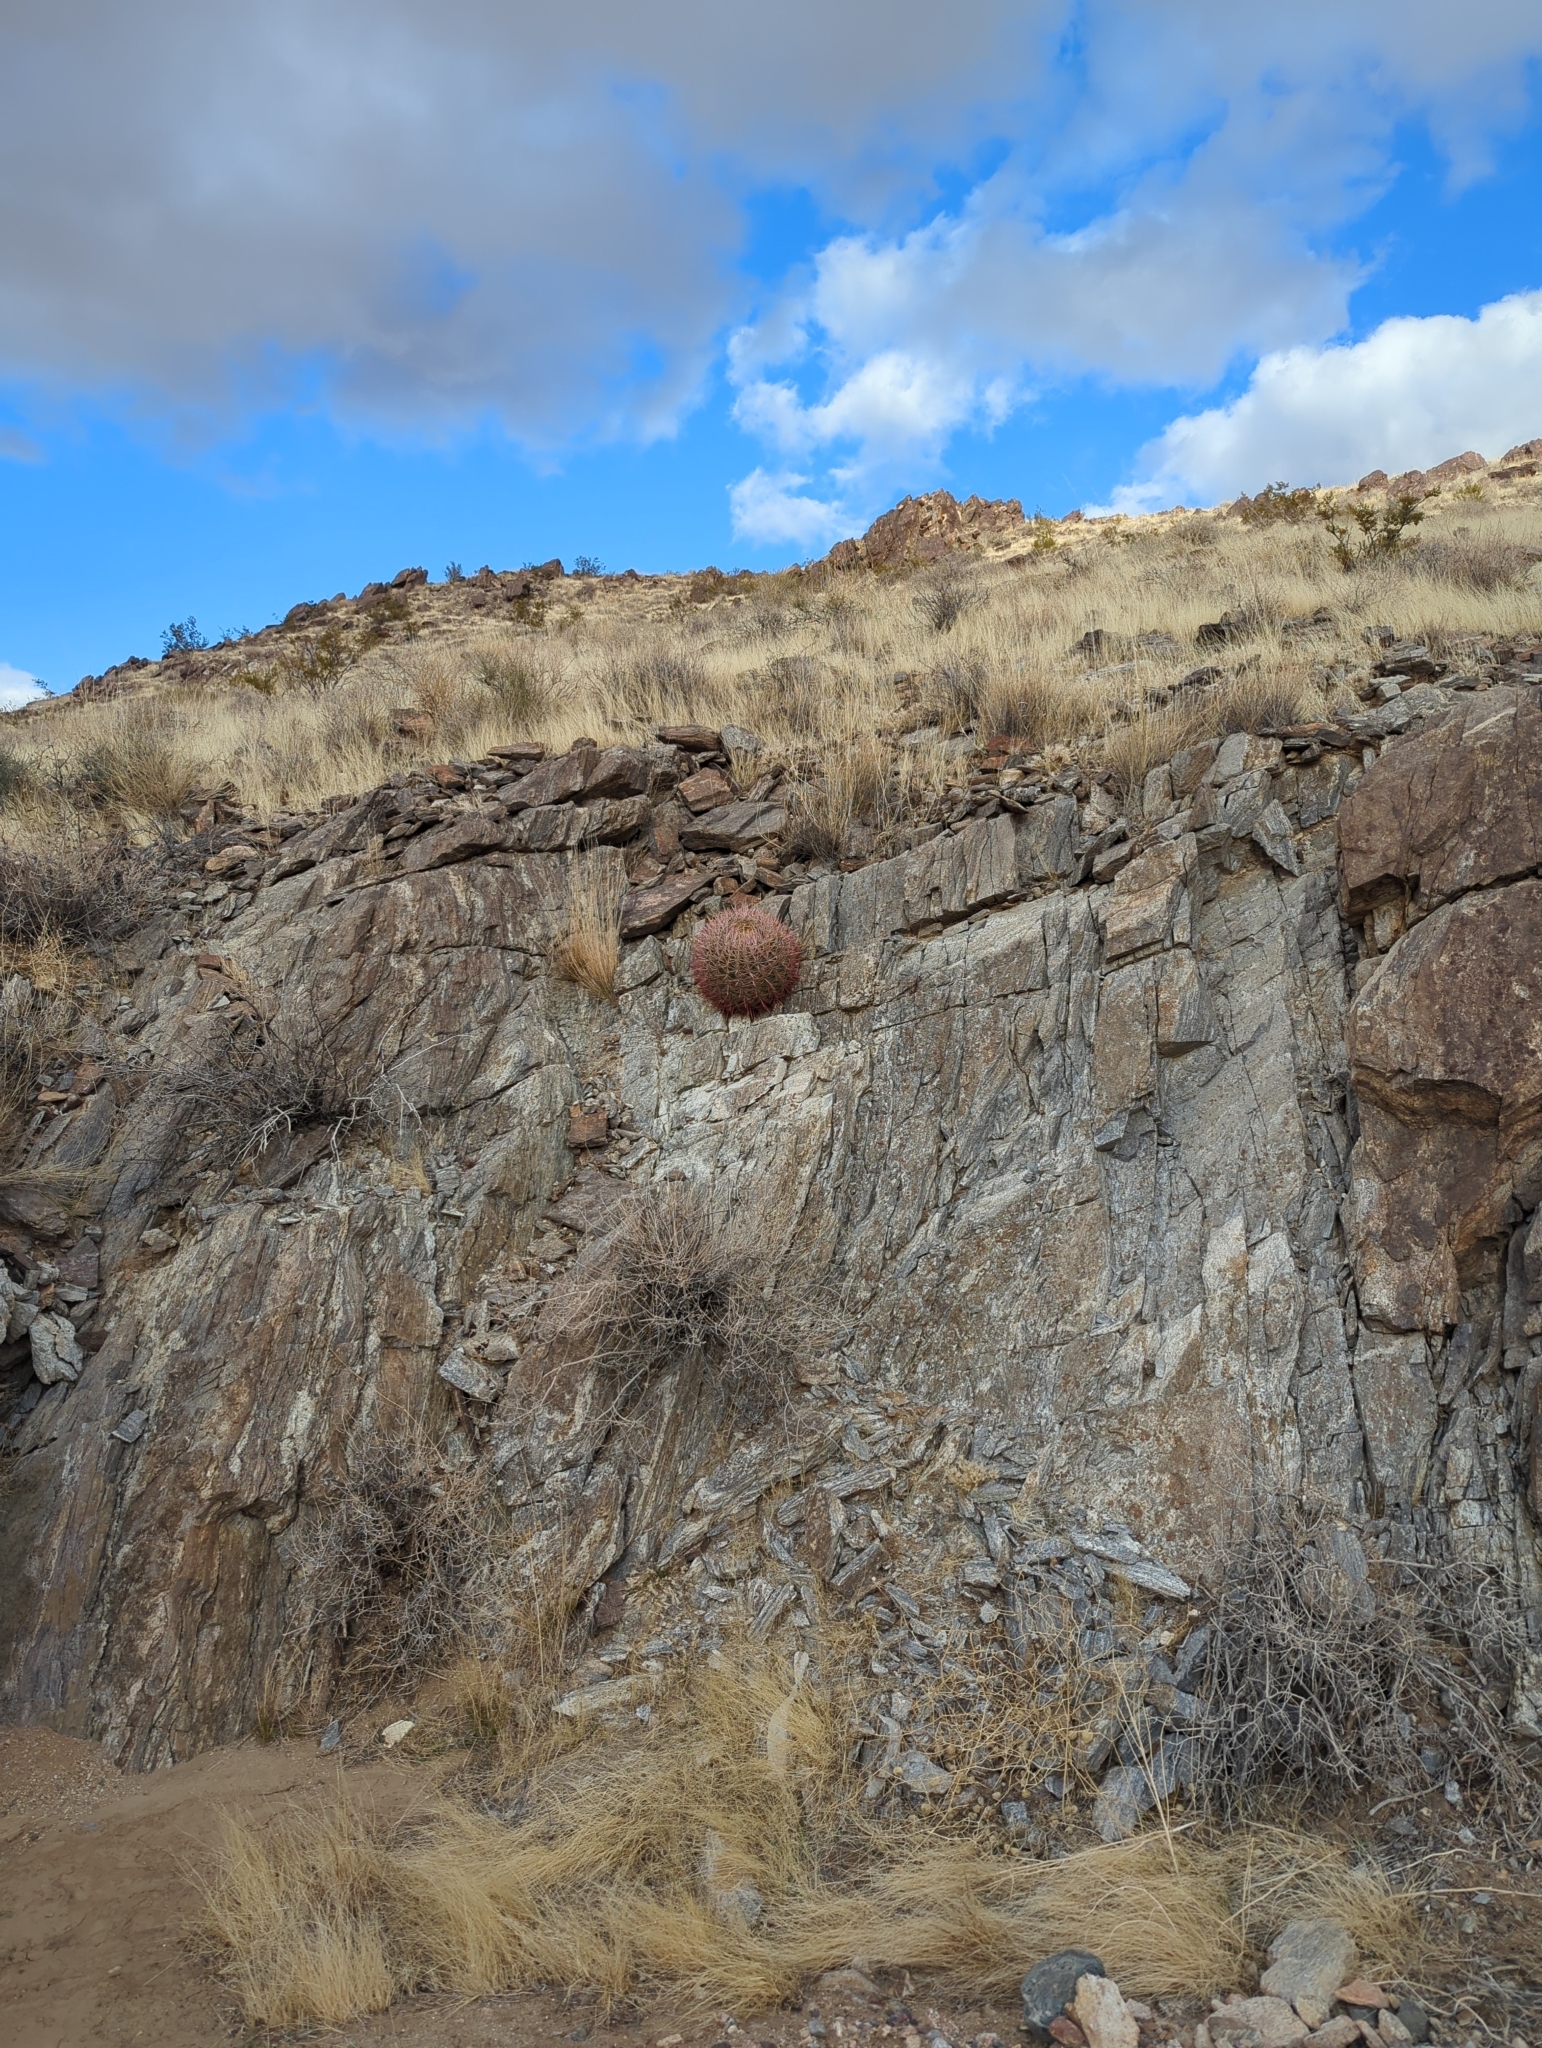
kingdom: Plantae
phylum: Tracheophyta
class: Magnoliopsida
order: Caryophyllales
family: Cactaceae
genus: Ferocactus
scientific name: Ferocactus cylindraceus
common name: California barrel cactus
